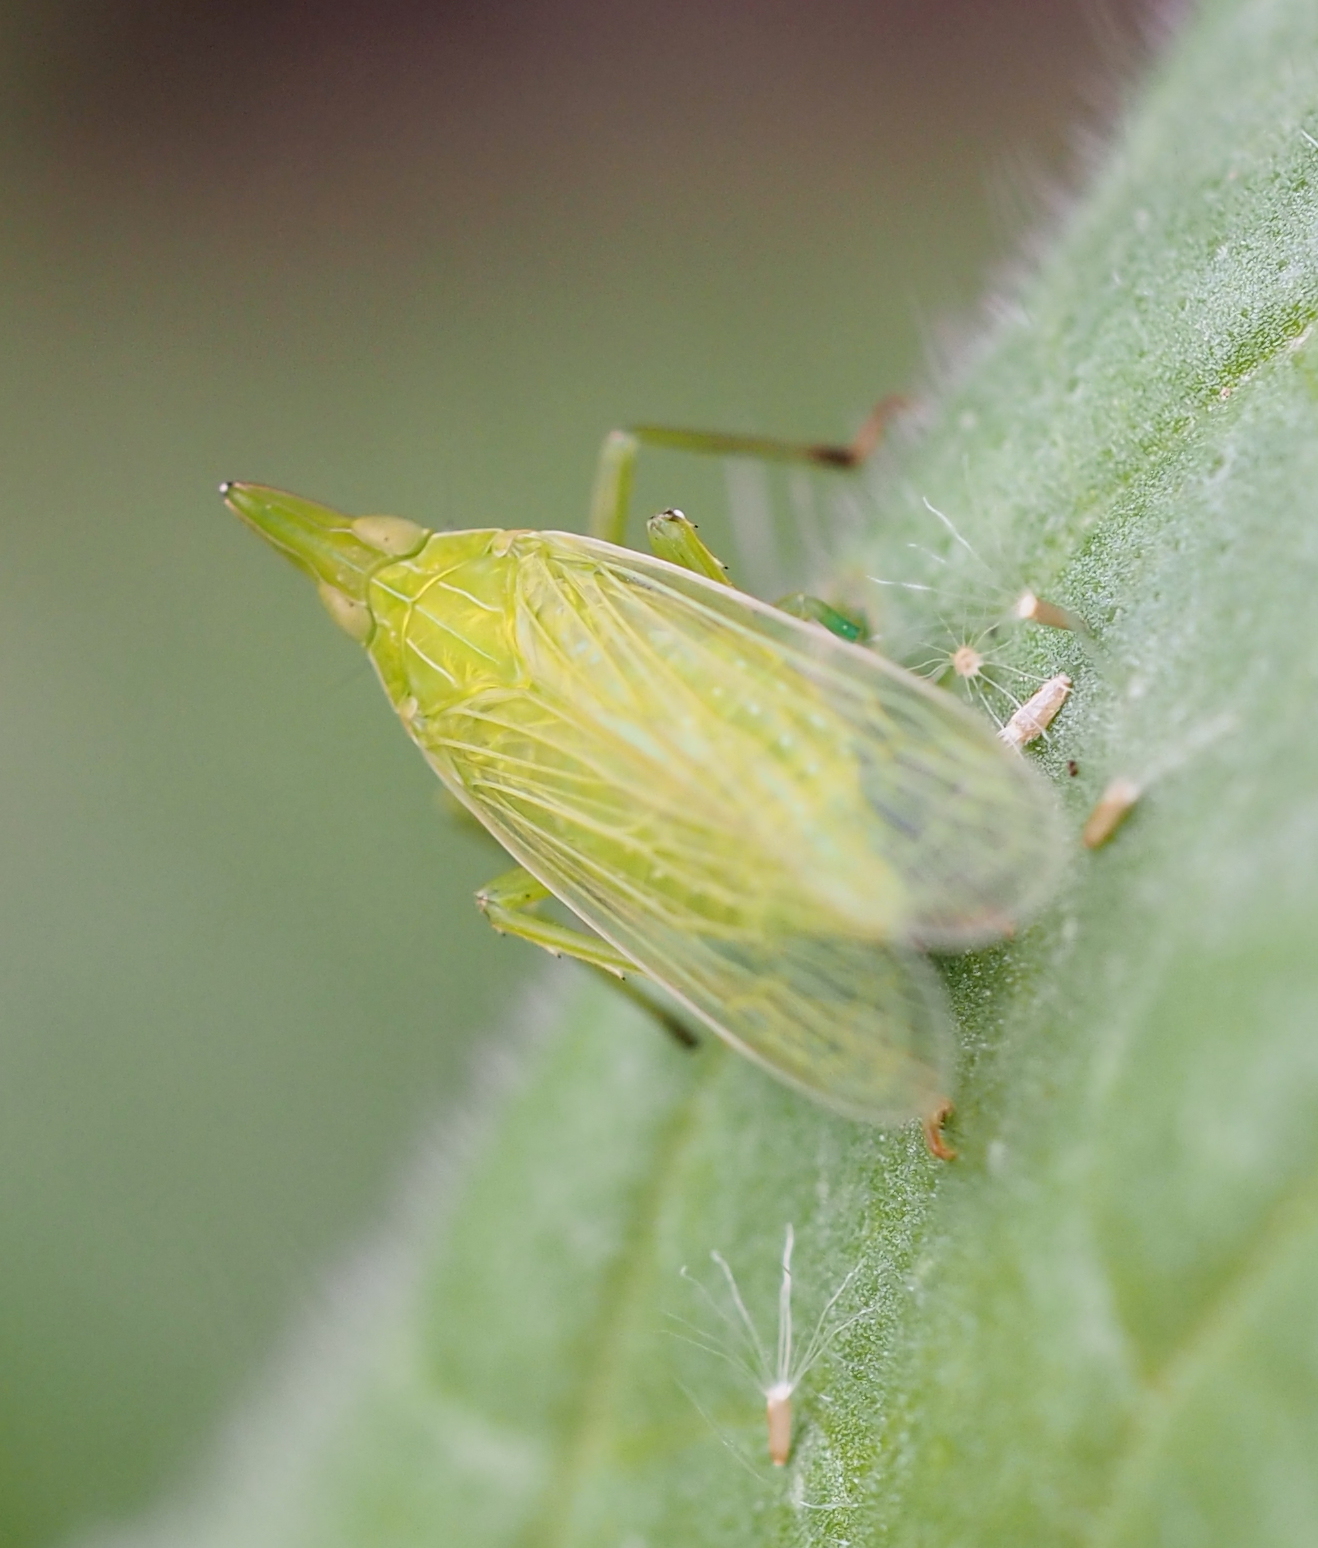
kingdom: Animalia
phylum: Arthropoda
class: Insecta
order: Hemiptera
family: Dictyopharidae
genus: Dictyophara
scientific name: Dictyophara europaea
